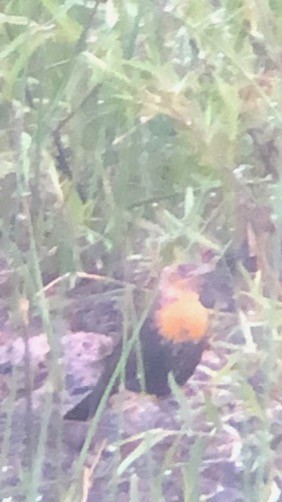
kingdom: Animalia
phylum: Chordata
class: Aves
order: Passeriformes
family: Icteridae
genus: Xanthocephalus
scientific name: Xanthocephalus xanthocephalus
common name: Yellow-headed blackbird
